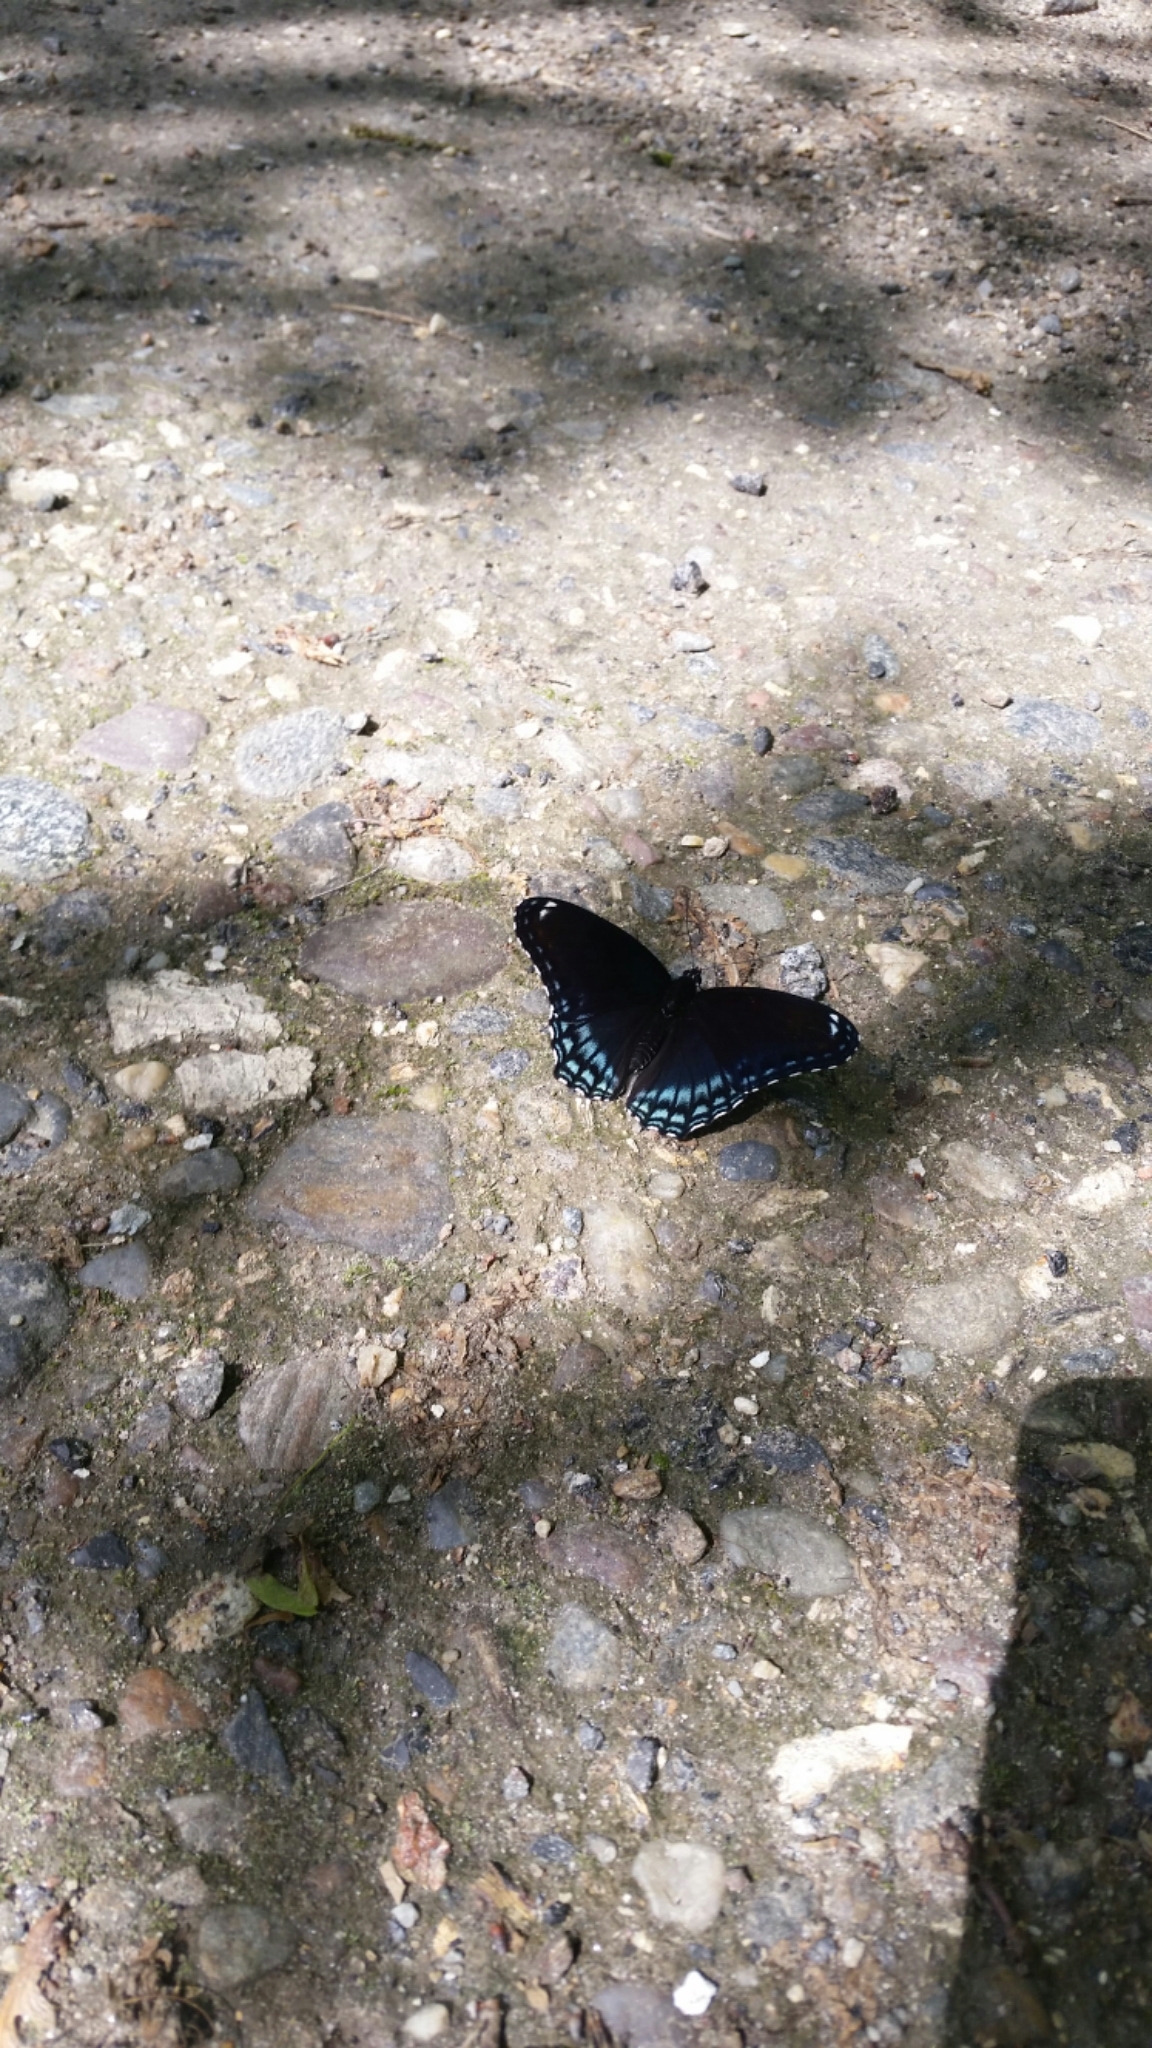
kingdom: Animalia
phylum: Arthropoda
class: Insecta
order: Lepidoptera
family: Nymphalidae
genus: Limenitis
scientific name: Limenitis astyanax
